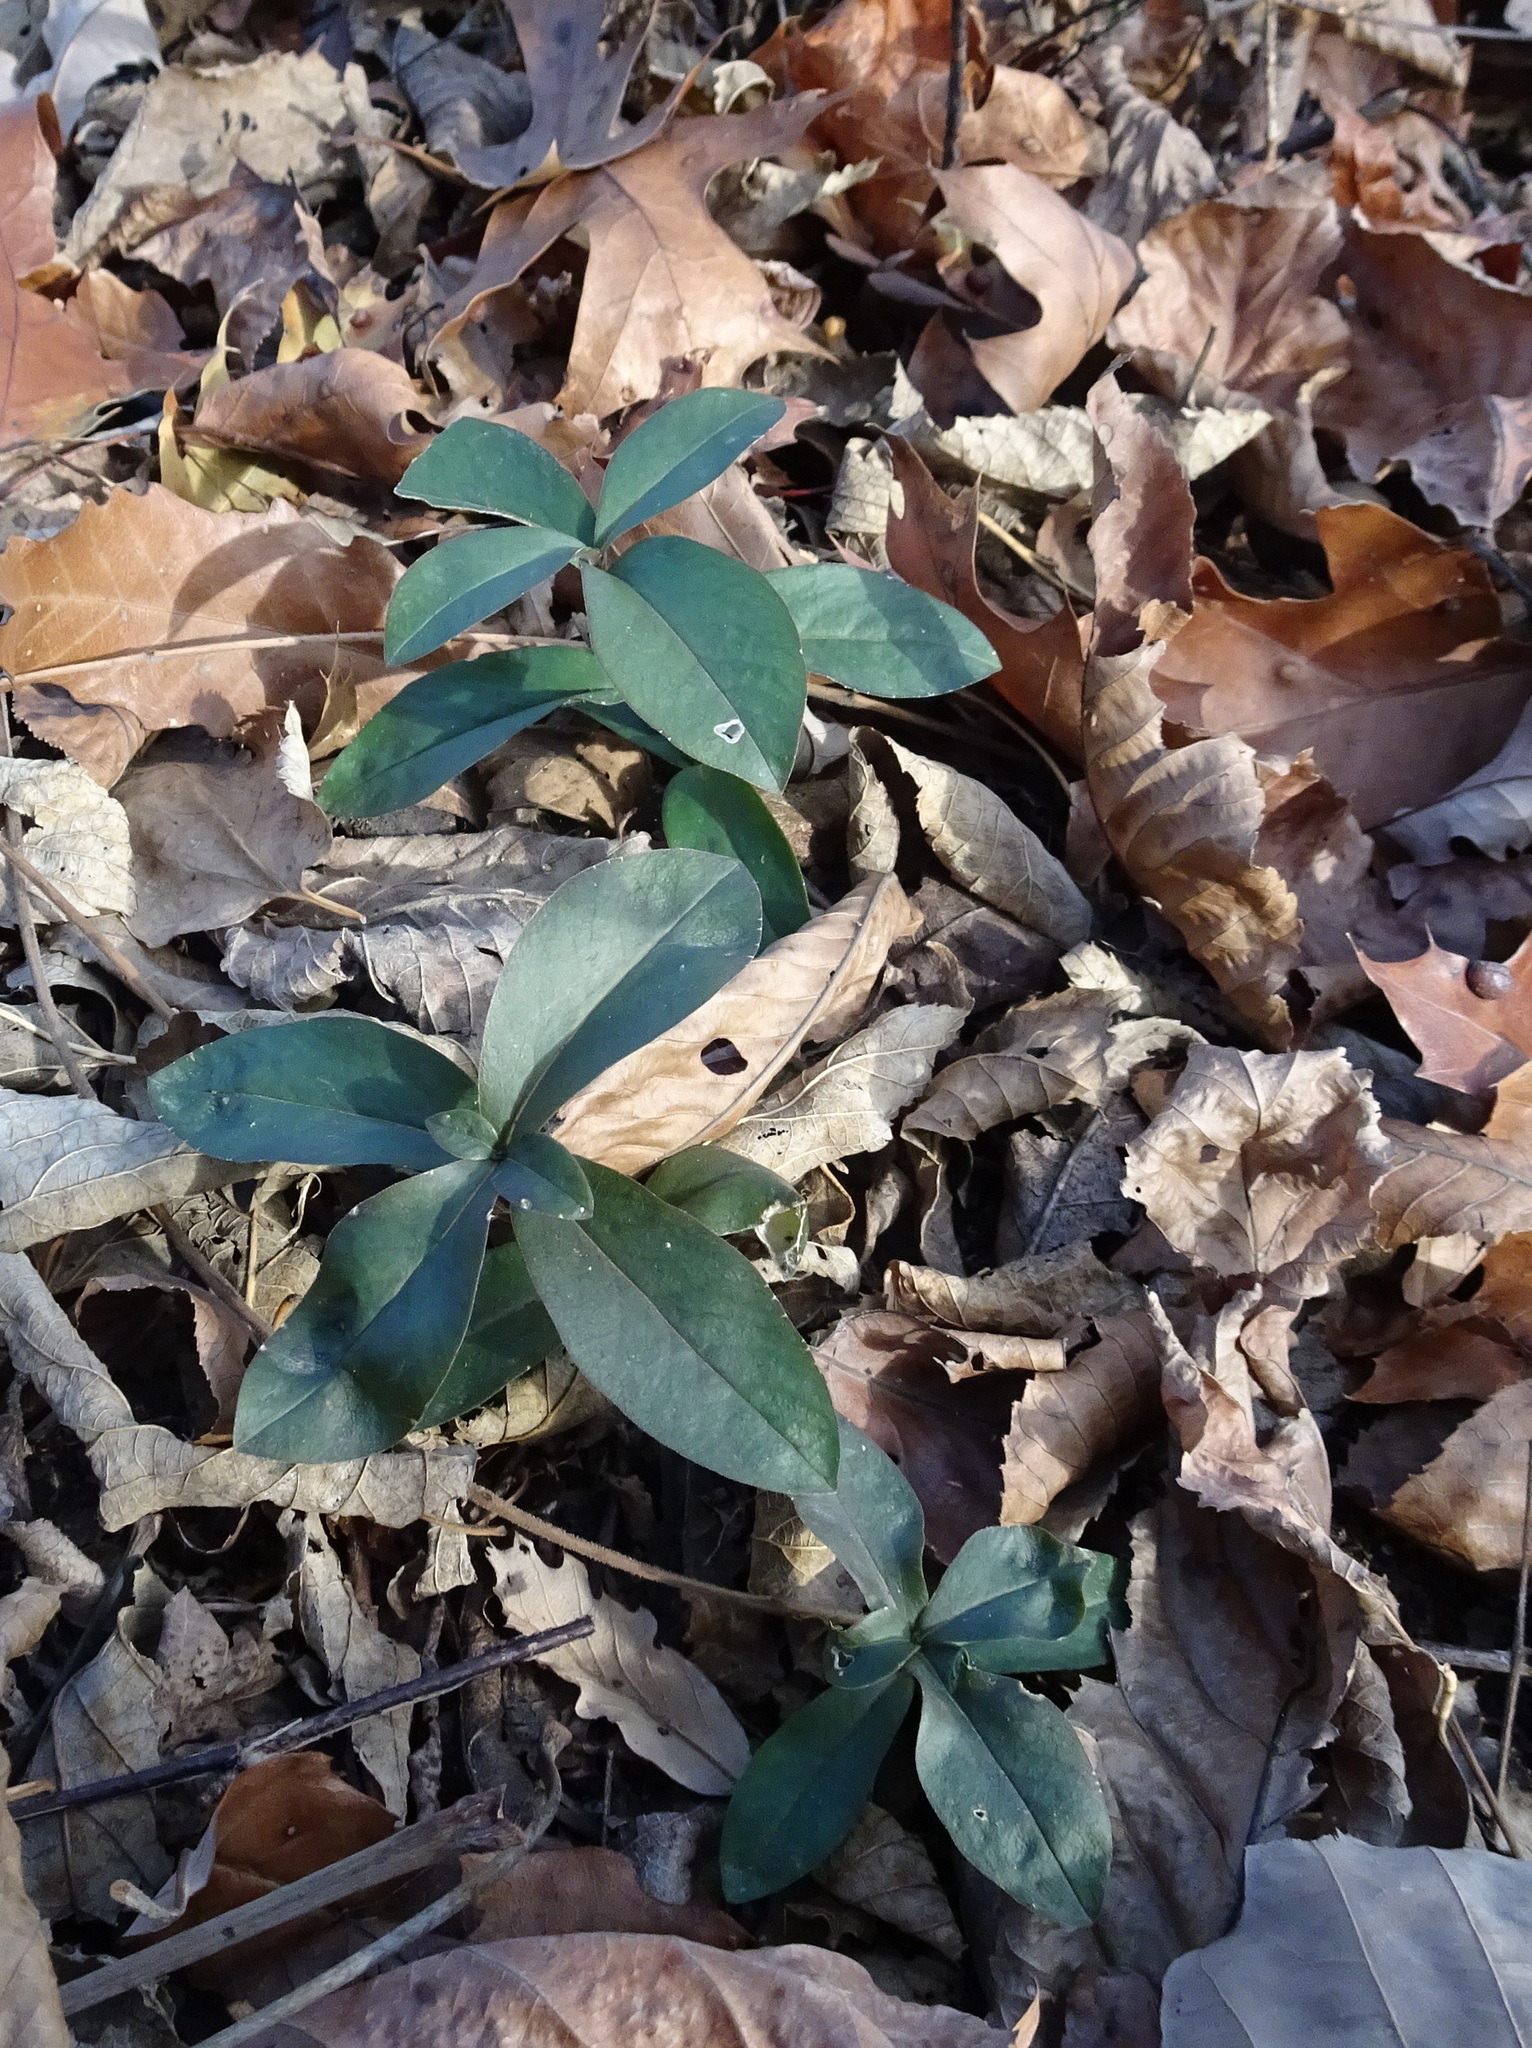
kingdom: Plantae
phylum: Tracheophyta
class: Magnoliopsida
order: Ericales
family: Polemoniaceae
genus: Phlox
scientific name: Phlox divaricata
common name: Blue phlox
